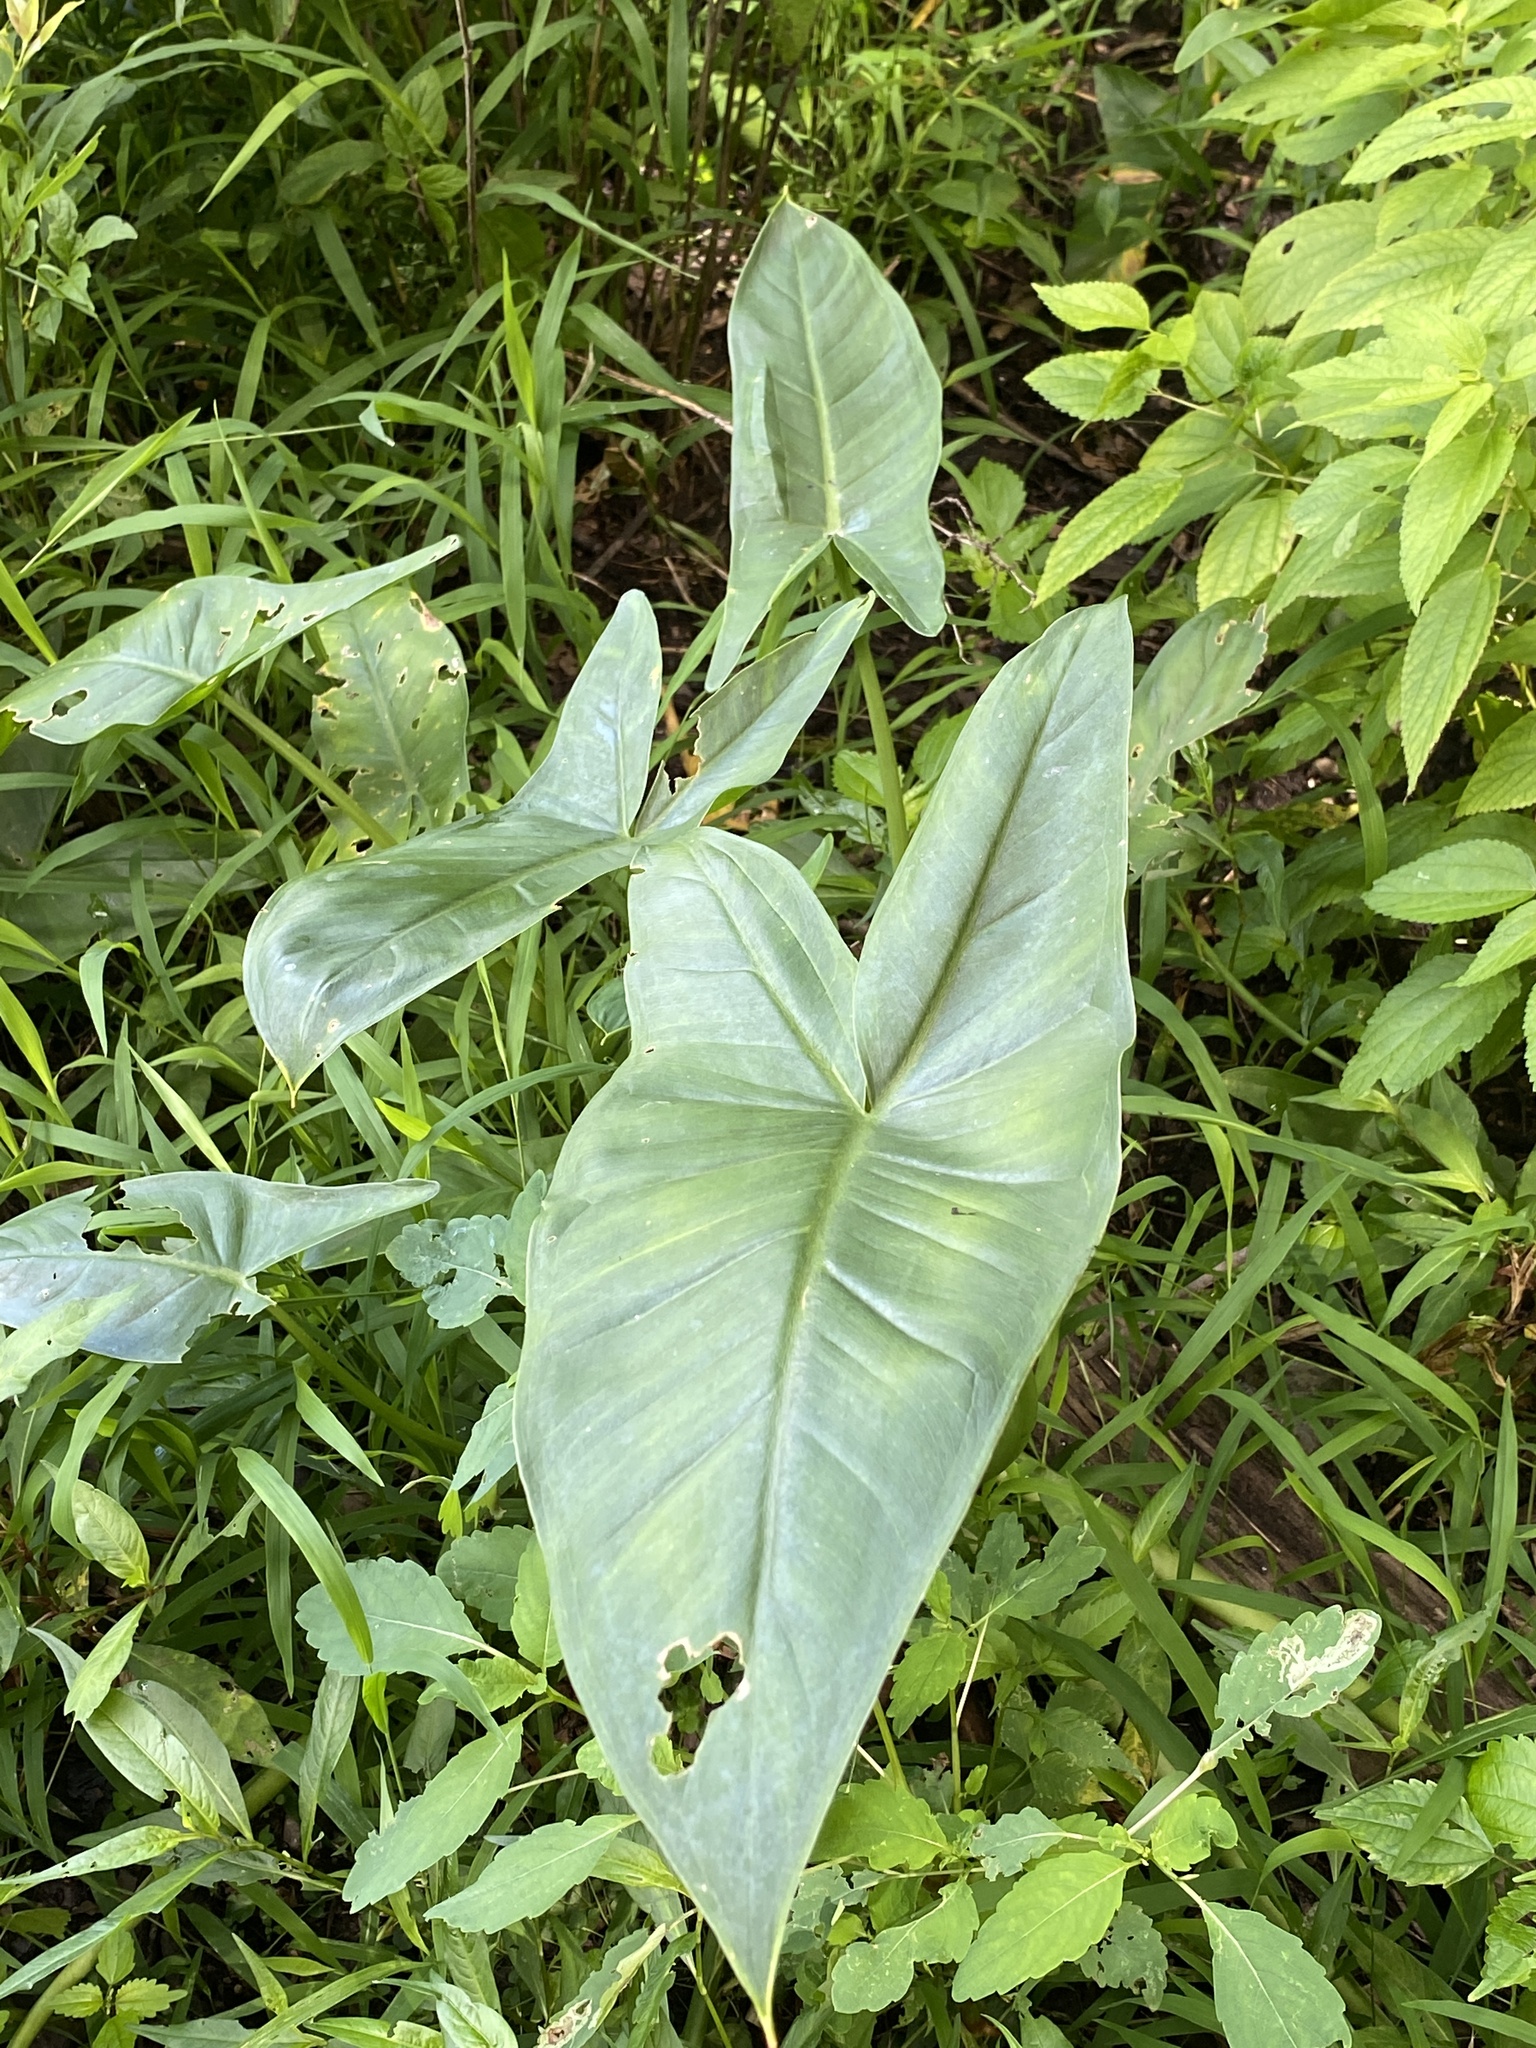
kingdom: Plantae
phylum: Tracheophyta
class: Liliopsida
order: Alismatales
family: Araceae
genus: Peltandra
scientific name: Peltandra virginica
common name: Arrow arum
